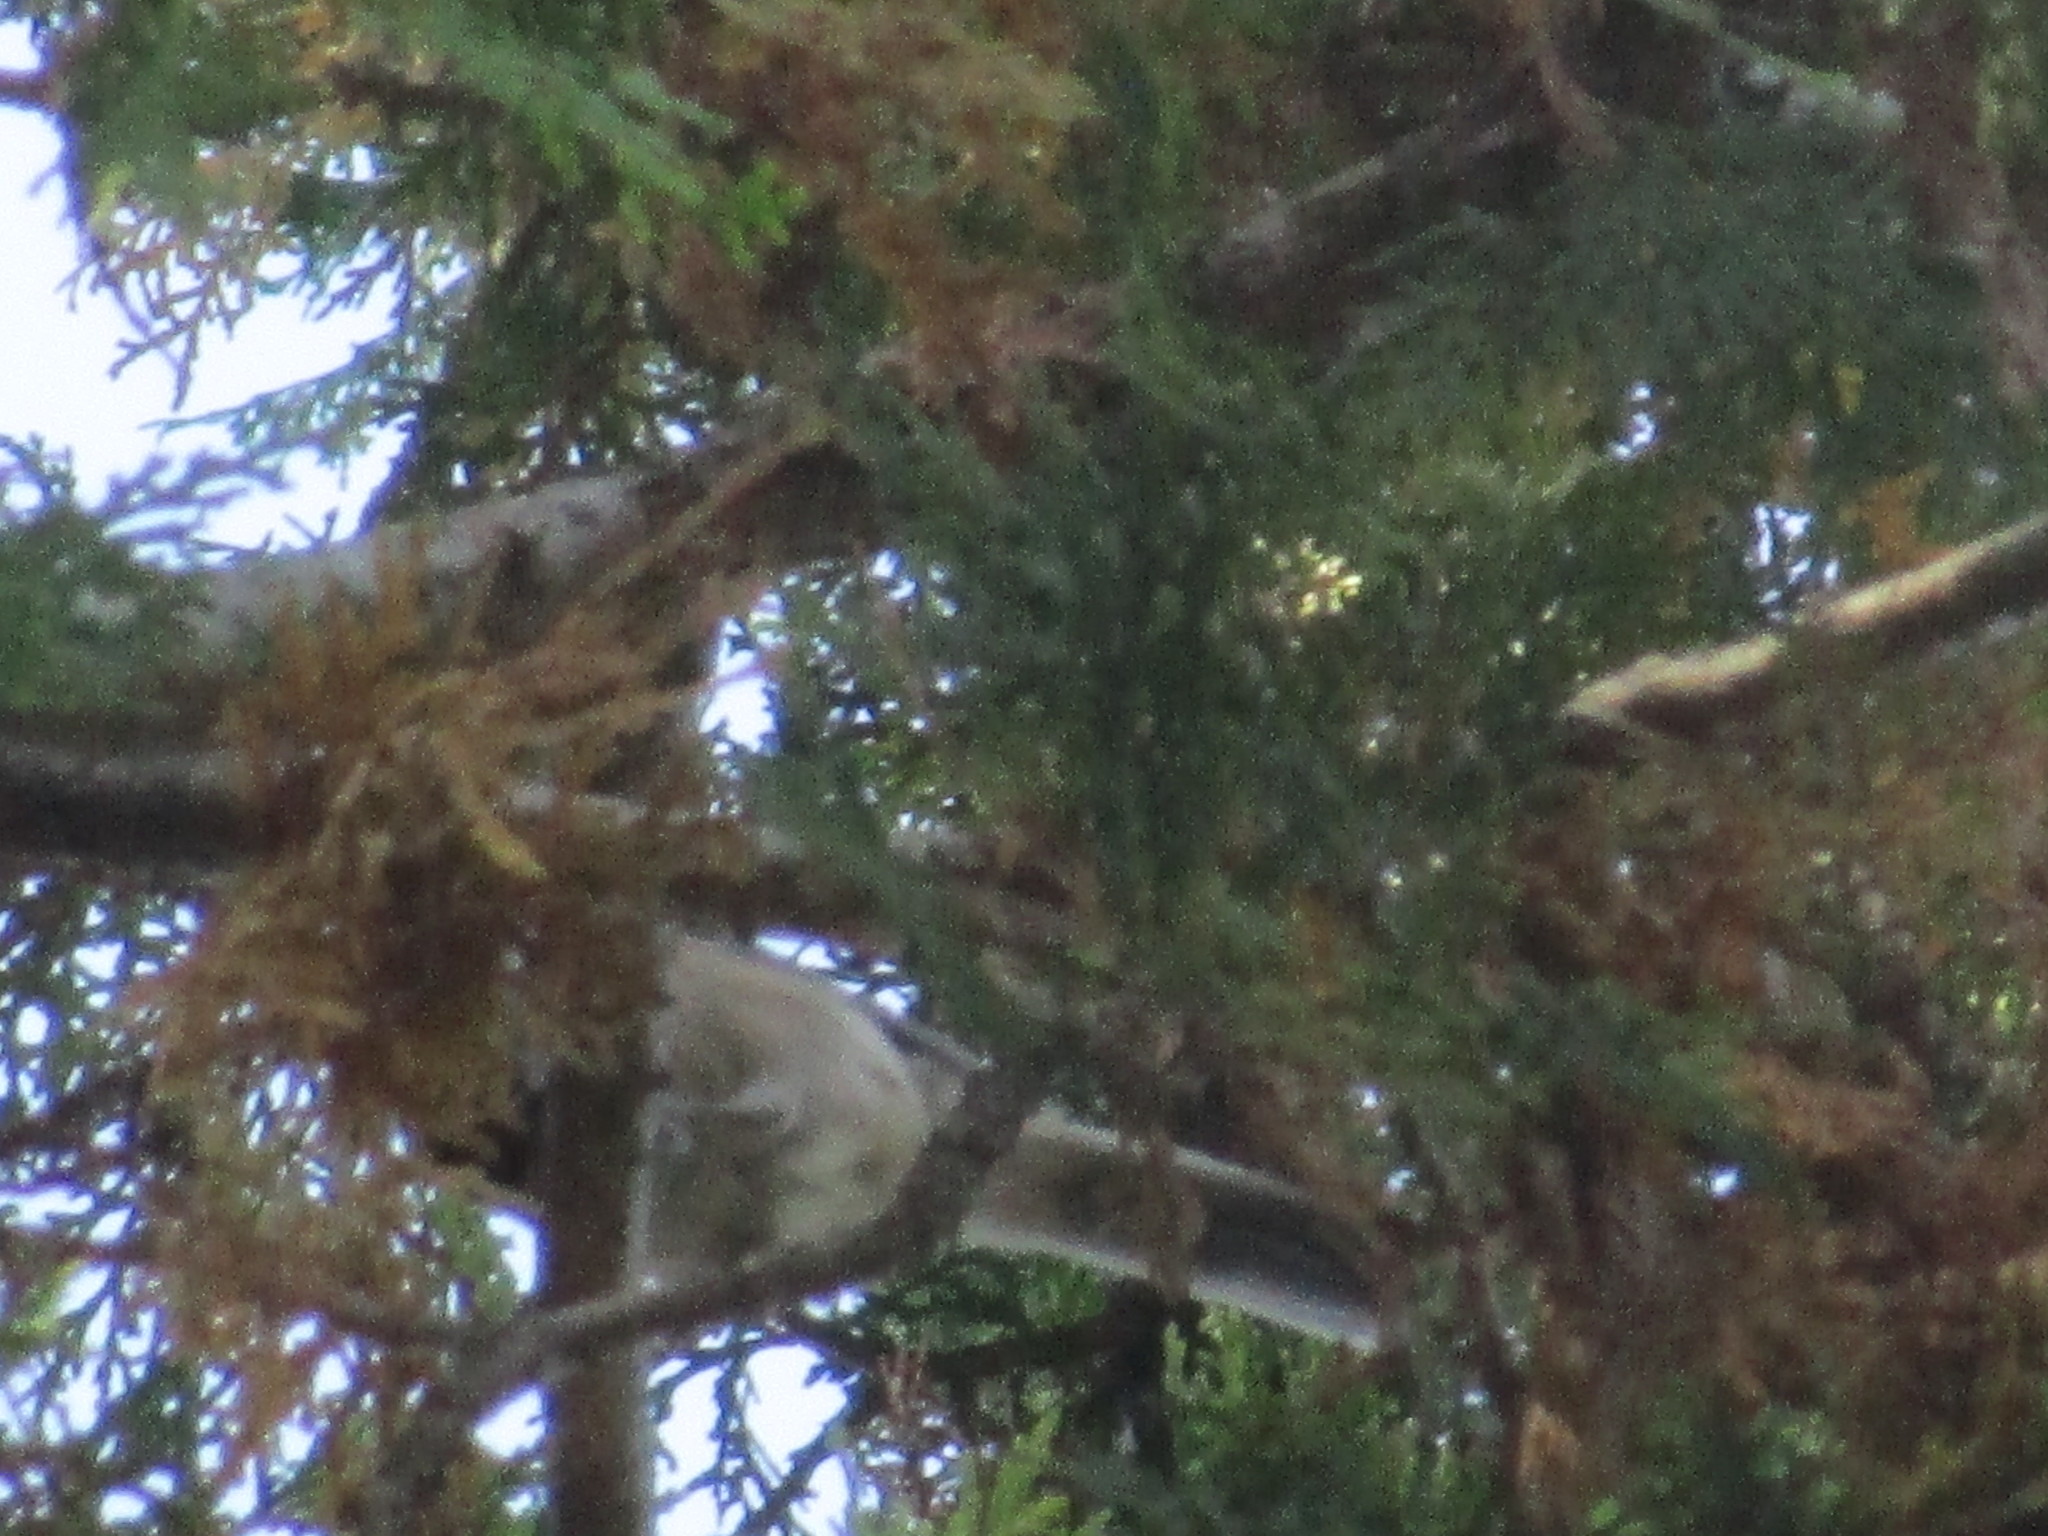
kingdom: Animalia
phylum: Chordata
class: Aves
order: Passeriformes
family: Paridae
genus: Poecile
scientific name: Poecile carolinensis
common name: Carolina chickadee
